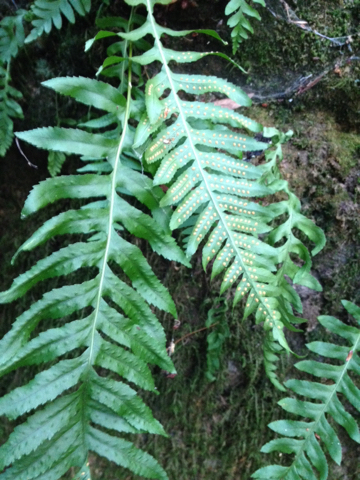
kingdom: Plantae
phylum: Tracheophyta
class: Polypodiopsida
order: Polypodiales
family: Polypodiaceae
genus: Polypodium
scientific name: Polypodium californicum
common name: California polypody
